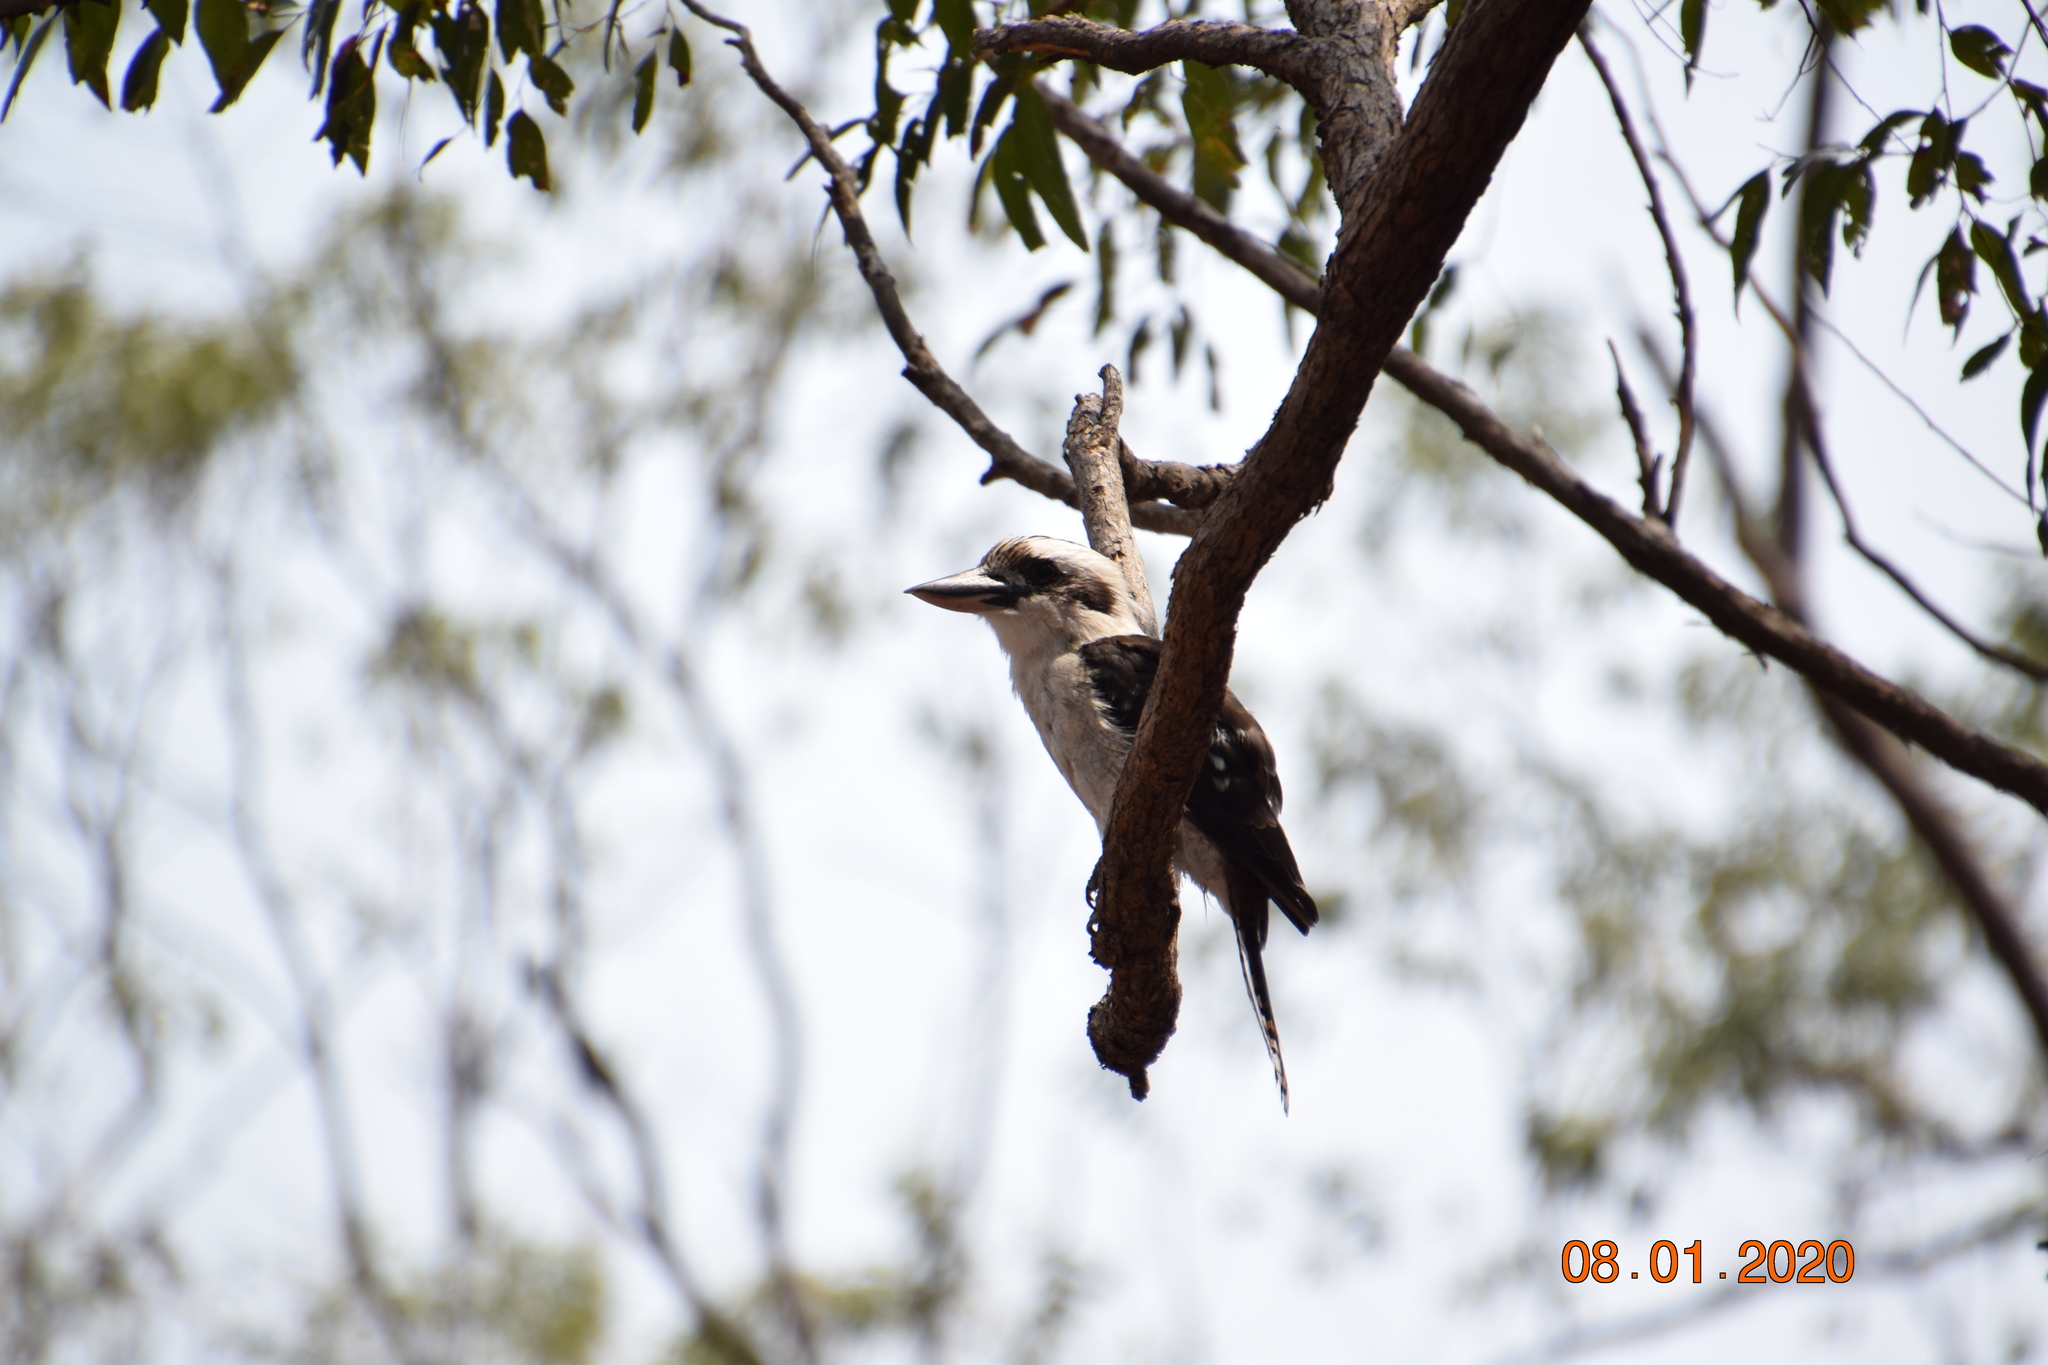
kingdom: Animalia
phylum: Chordata
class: Aves
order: Coraciiformes
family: Alcedinidae
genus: Dacelo
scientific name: Dacelo novaeguineae
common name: Laughing kookaburra
